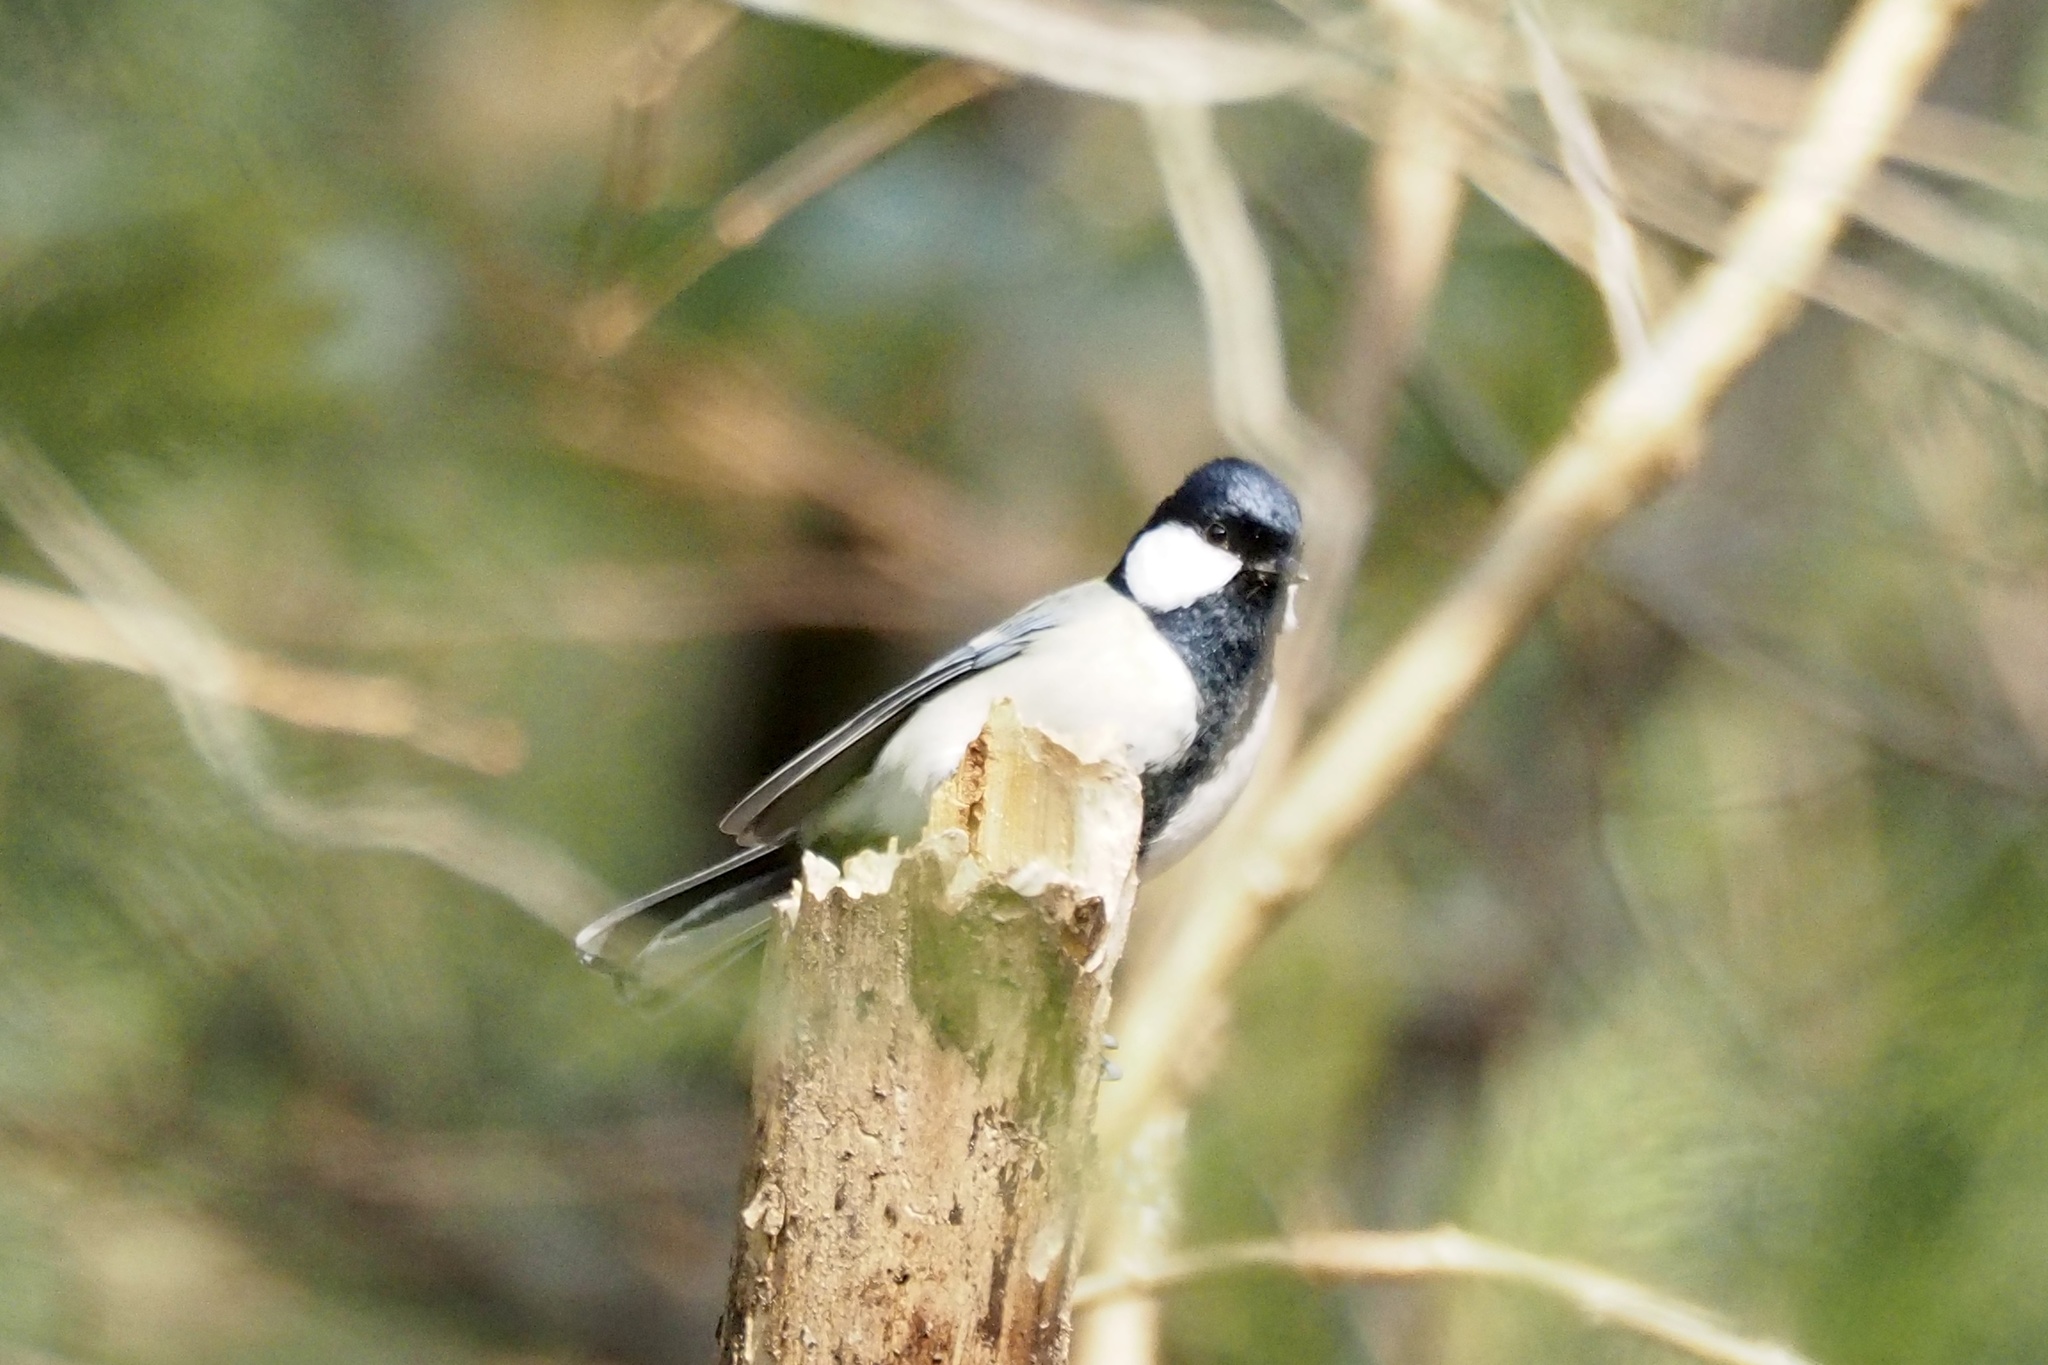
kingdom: Animalia
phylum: Chordata
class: Aves
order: Passeriformes
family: Paridae
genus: Parus
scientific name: Parus minor
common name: Japanese tit
